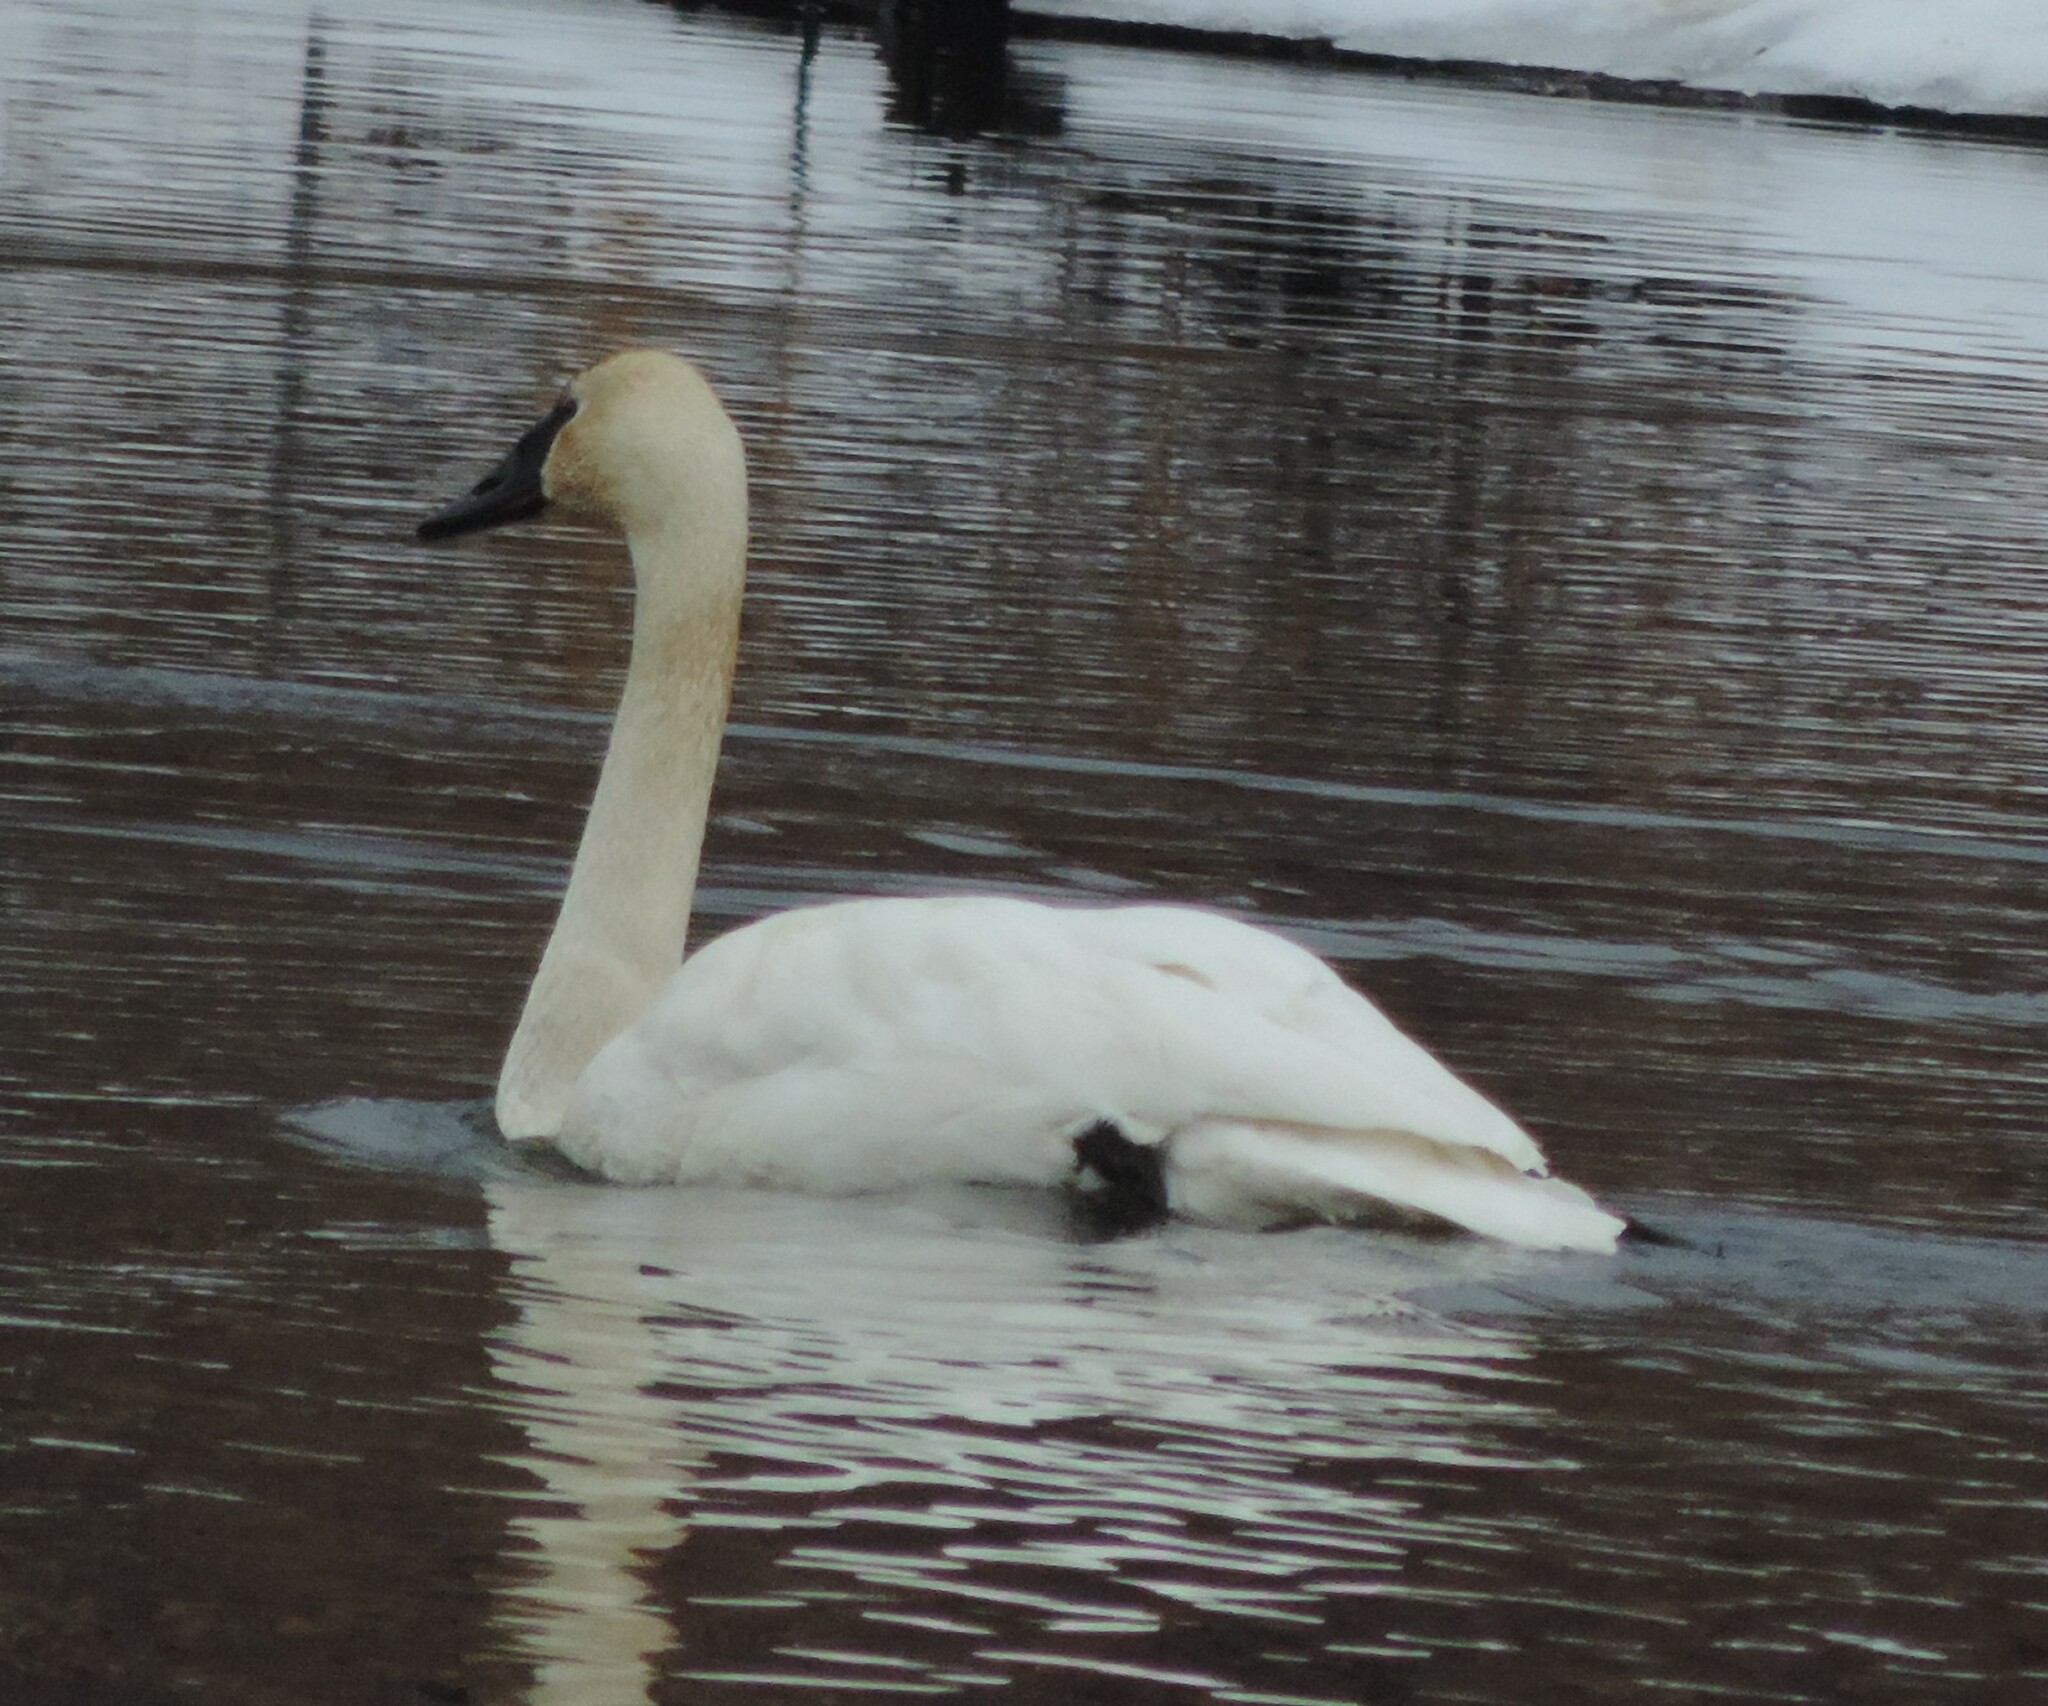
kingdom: Animalia
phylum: Chordata
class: Aves
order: Anseriformes
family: Anatidae
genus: Cygnus
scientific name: Cygnus buccinator
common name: Trumpeter swan
